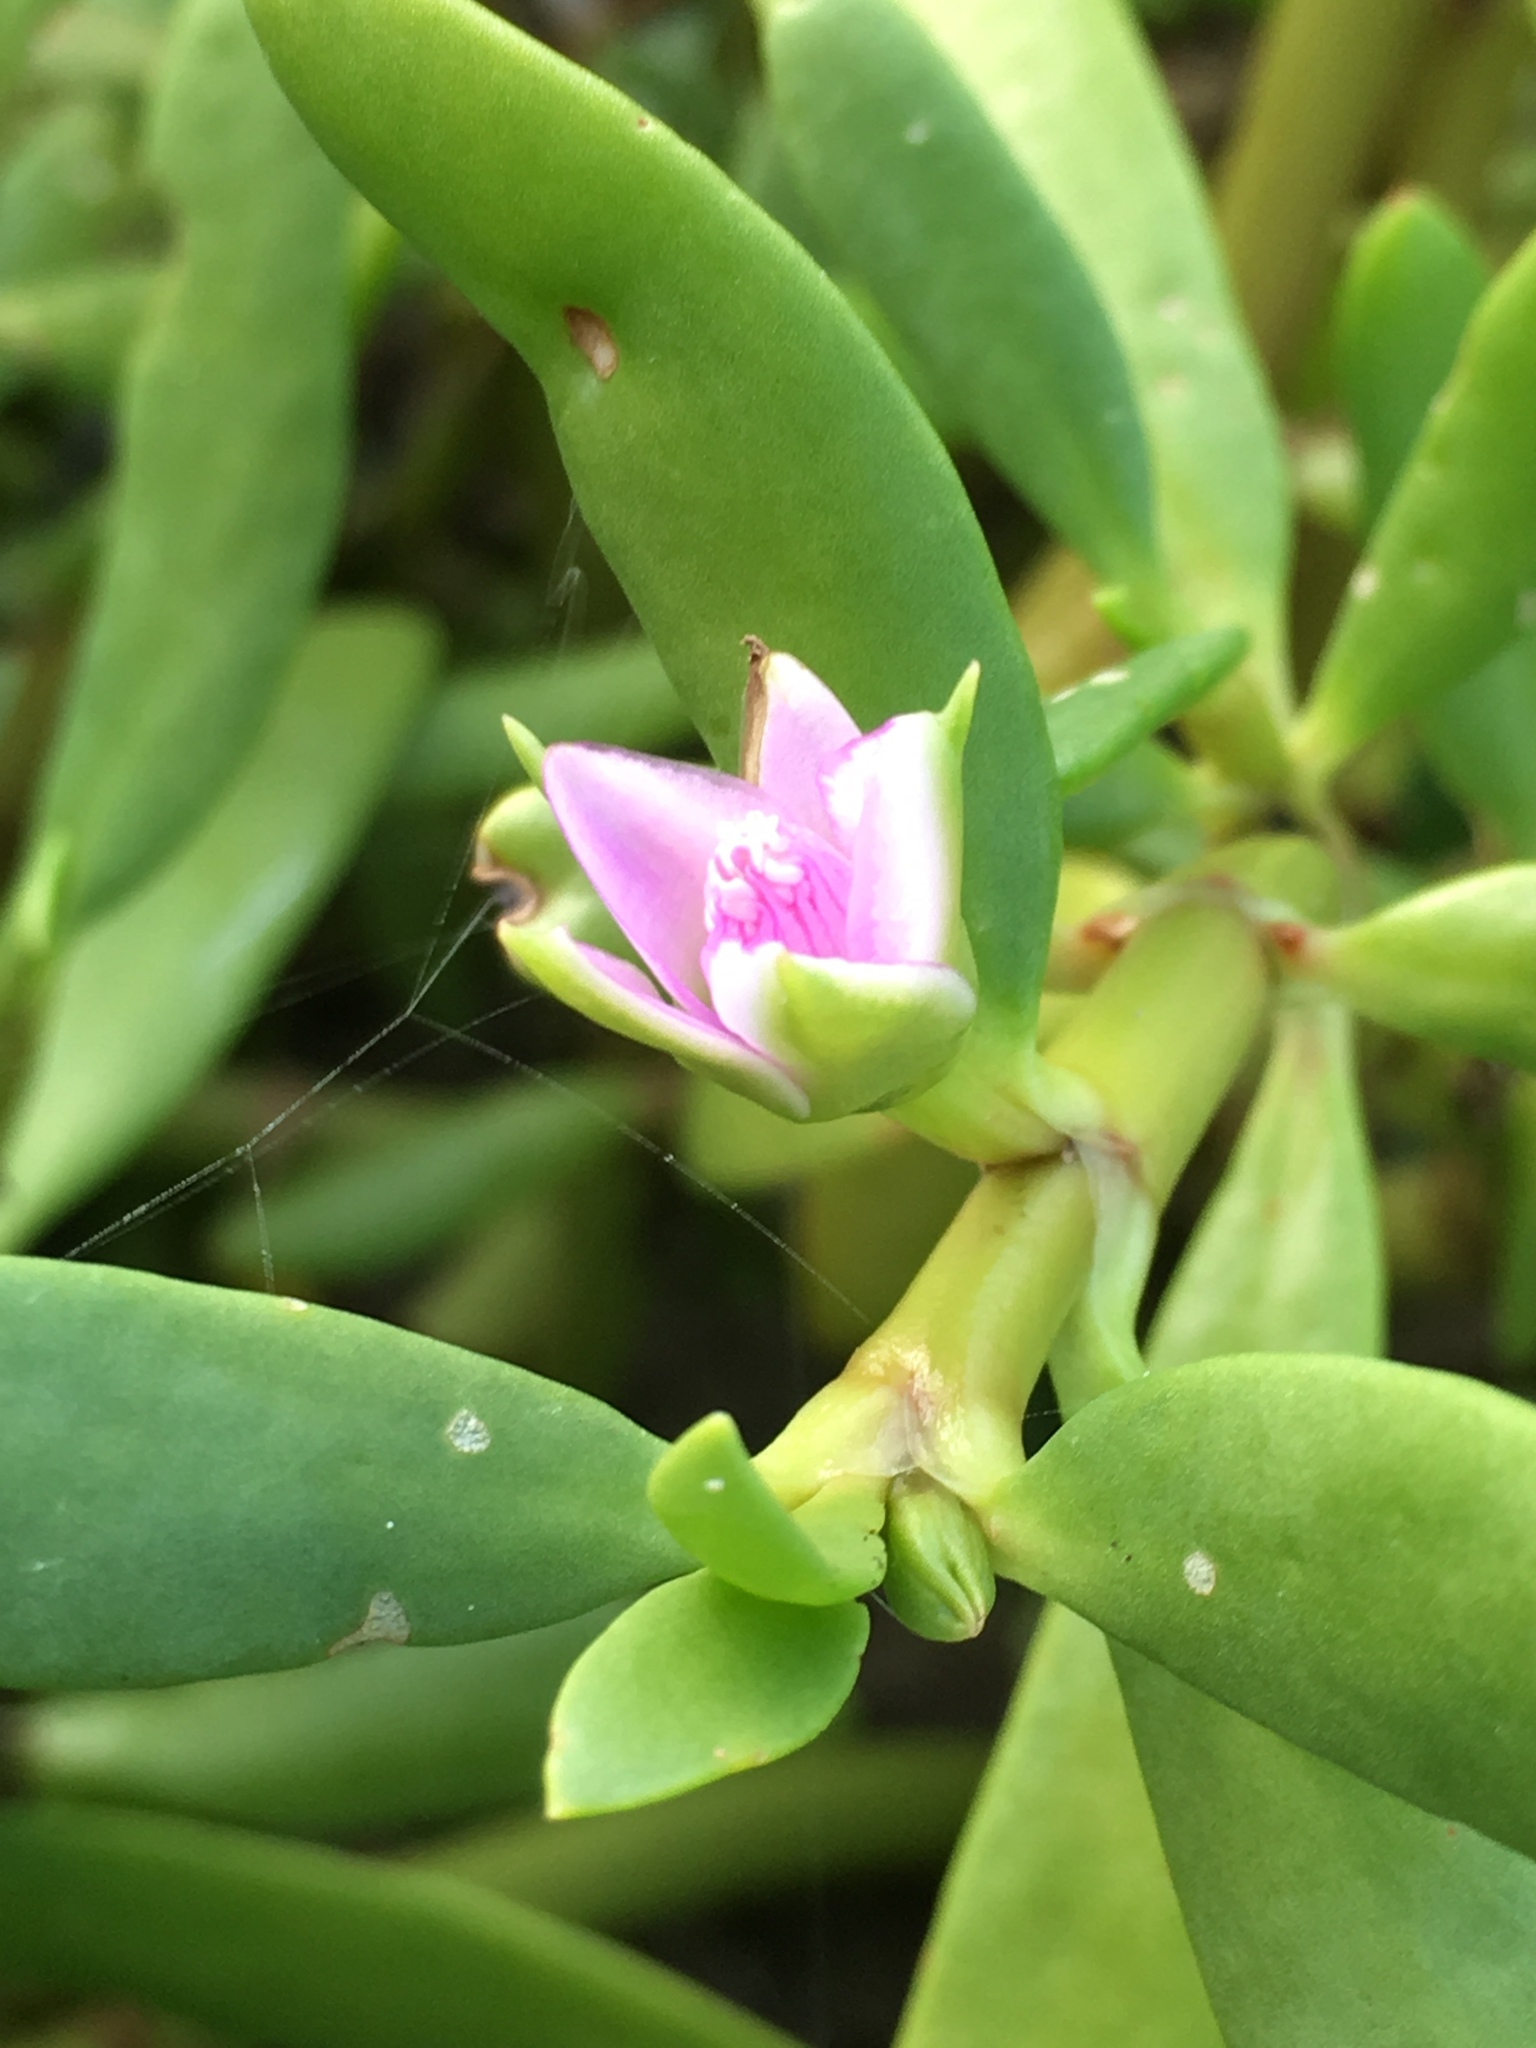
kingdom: Plantae
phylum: Tracheophyta
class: Magnoliopsida
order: Caryophyllales
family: Aizoaceae
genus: Sesuvium
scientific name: Sesuvium portulacastrum
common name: Sea-purslane
